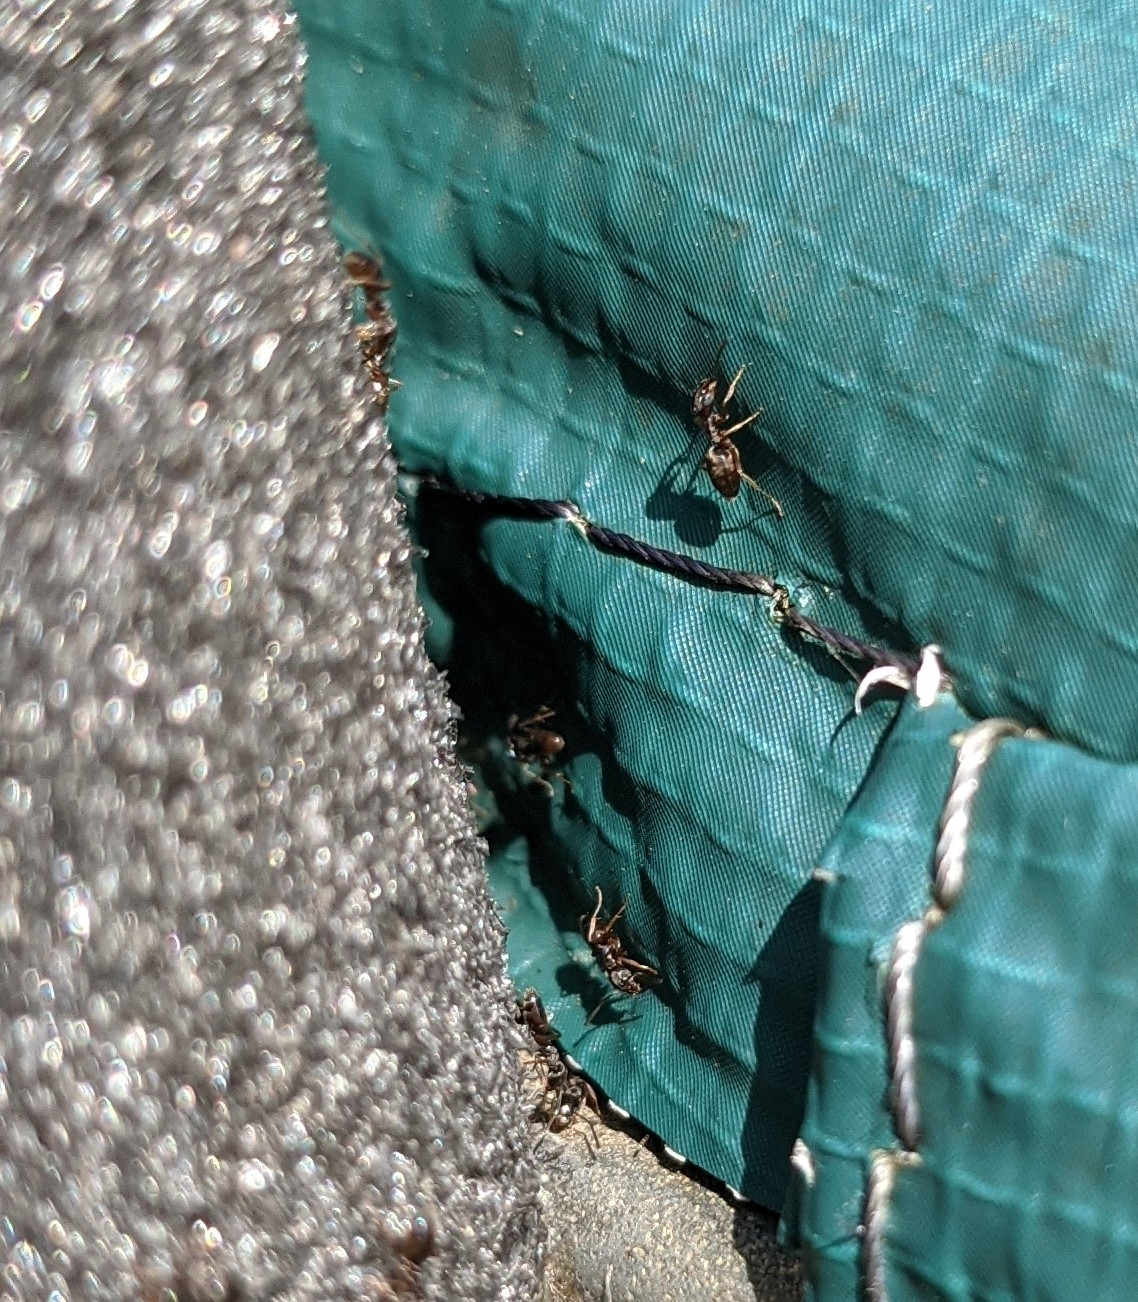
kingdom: Animalia
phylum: Arthropoda
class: Insecta
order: Hymenoptera
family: Formicidae
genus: Tapinoma
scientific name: Tapinoma sessile
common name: Odorous house ant
